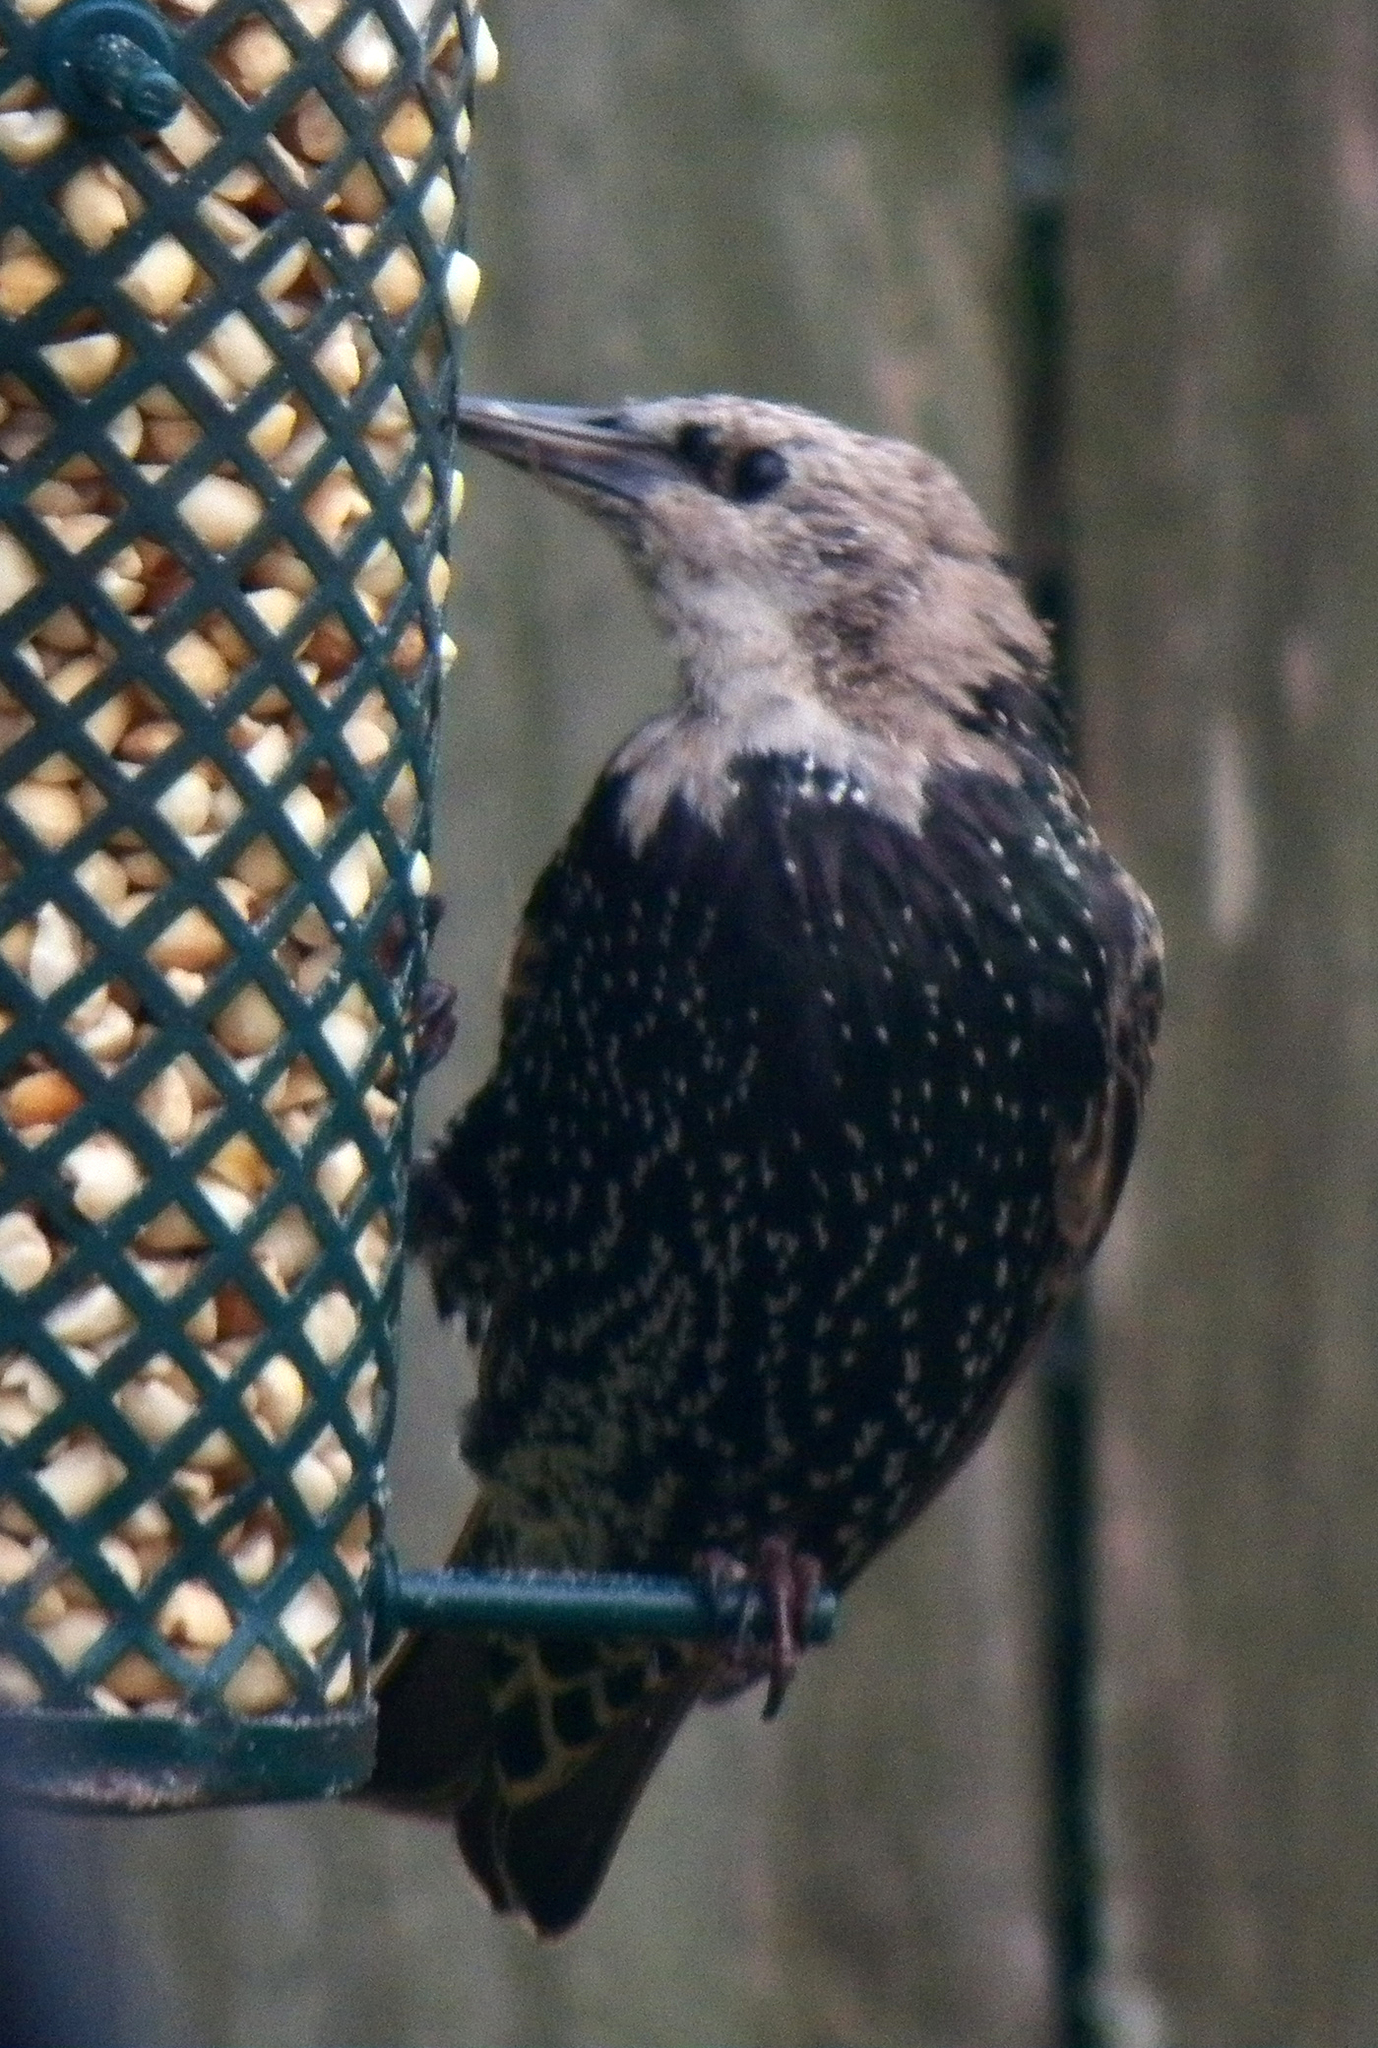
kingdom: Animalia
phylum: Chordata
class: Aves
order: Passeriformes
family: Sturnidae
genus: Sturnus
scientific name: Sturnus vulgaris
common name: Common starling
